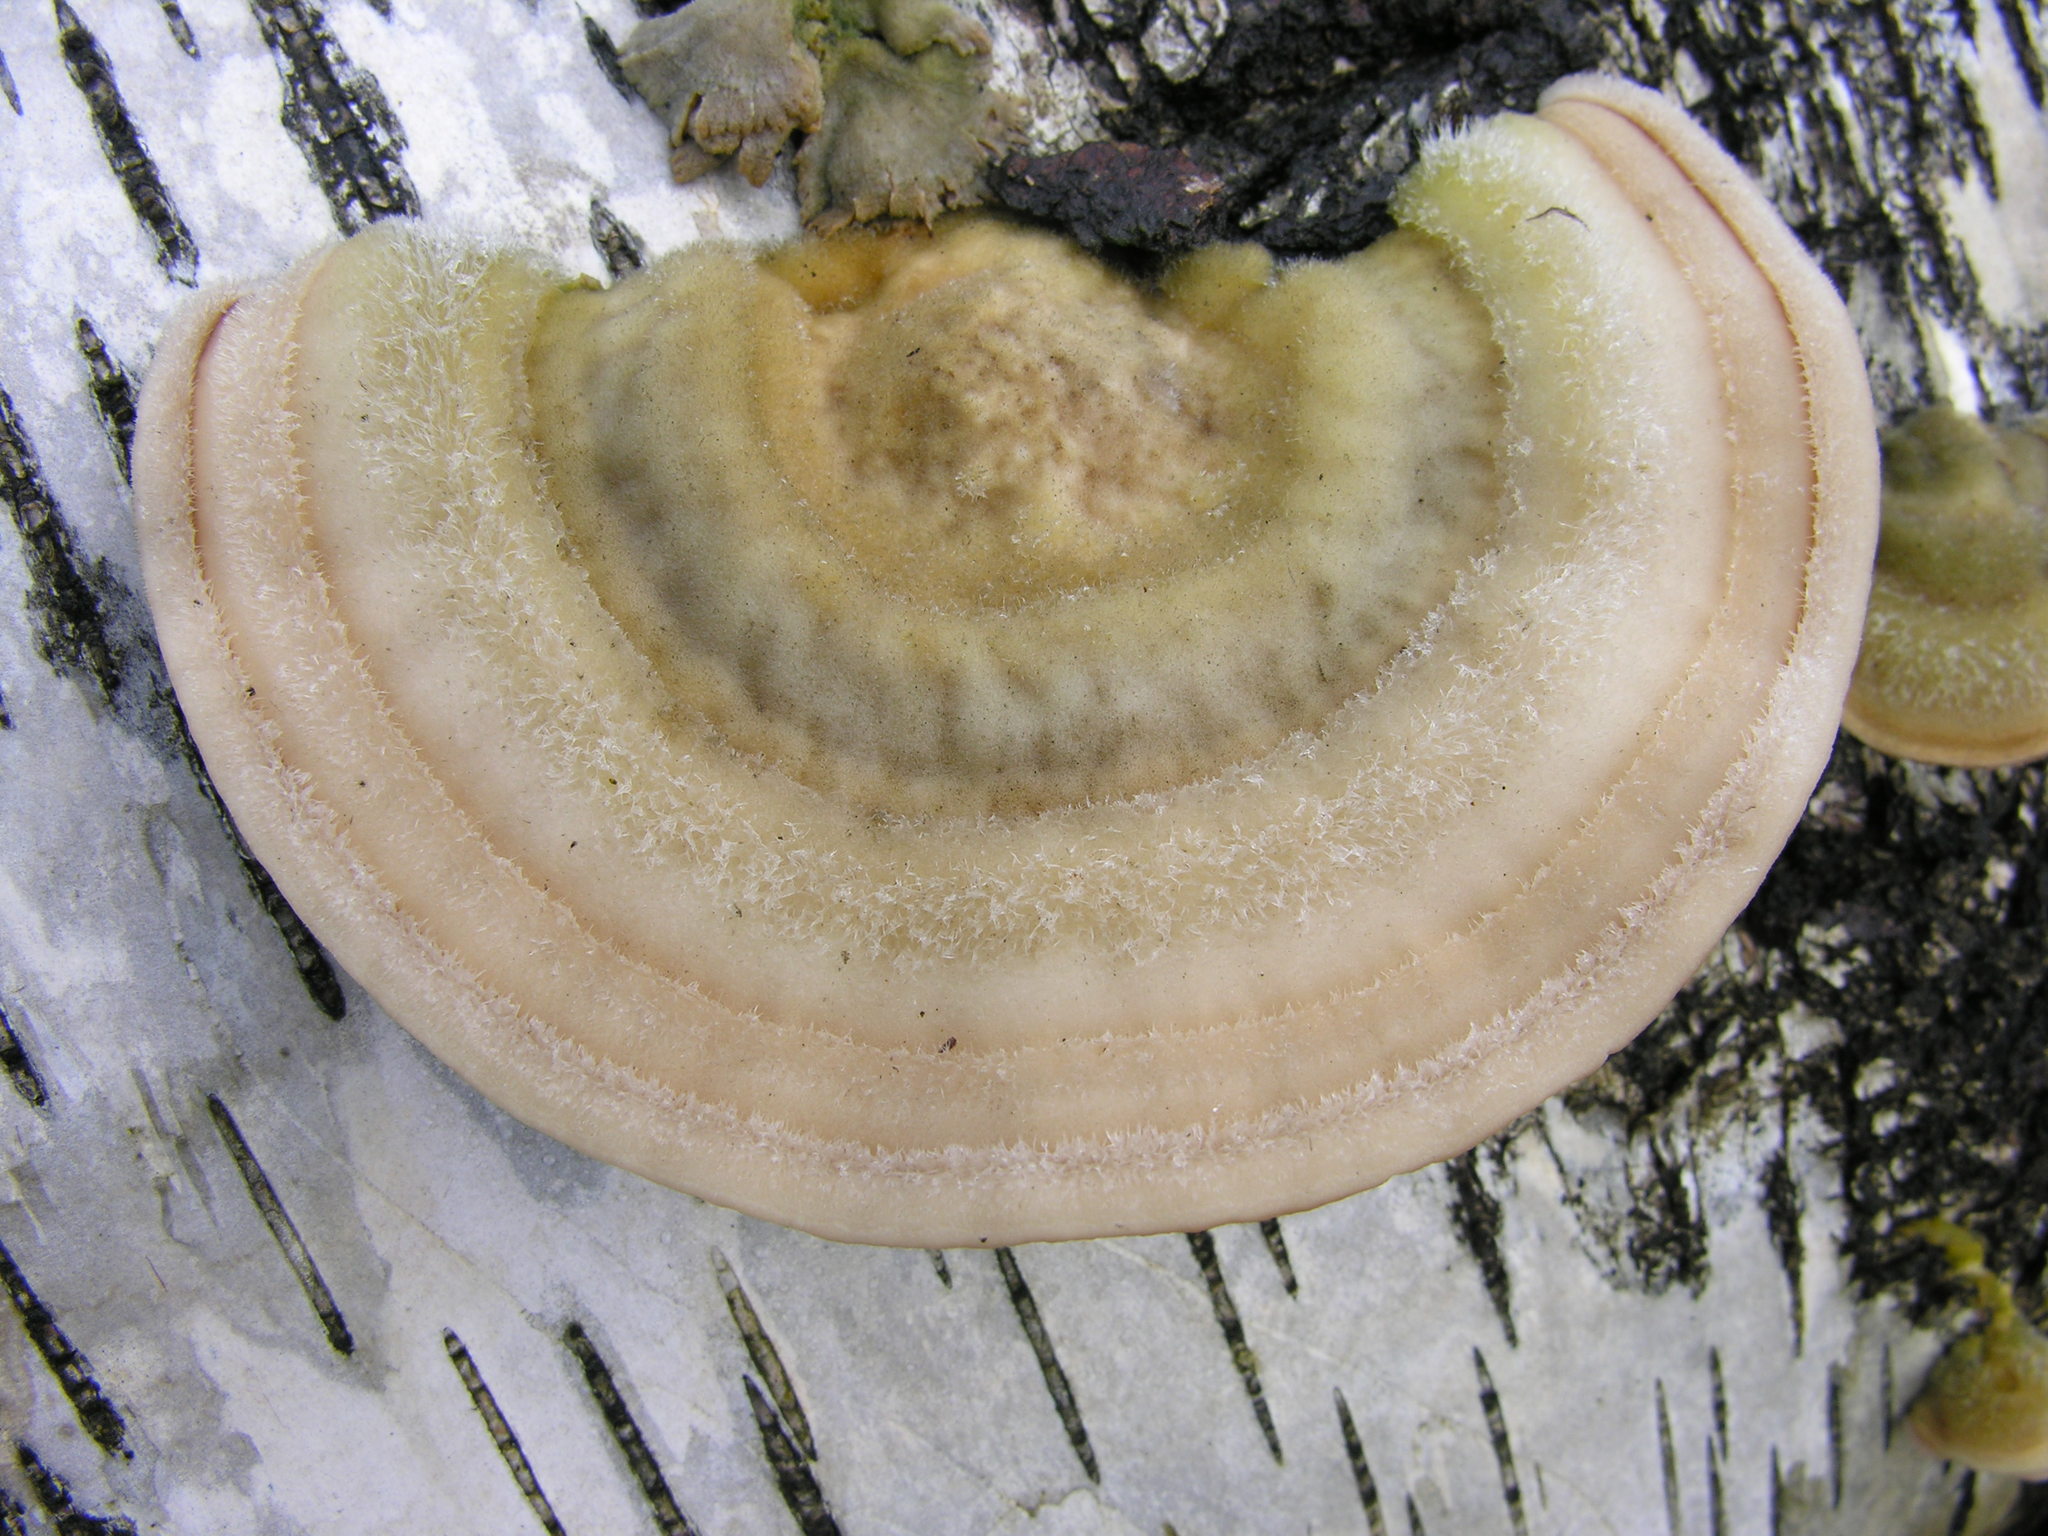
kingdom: Fungi
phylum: Basidiomycota
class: Agaricomycetes
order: Polyporales
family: Polyporaceae
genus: Trametes
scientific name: Trametes hirsuta
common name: Hairy bracket
